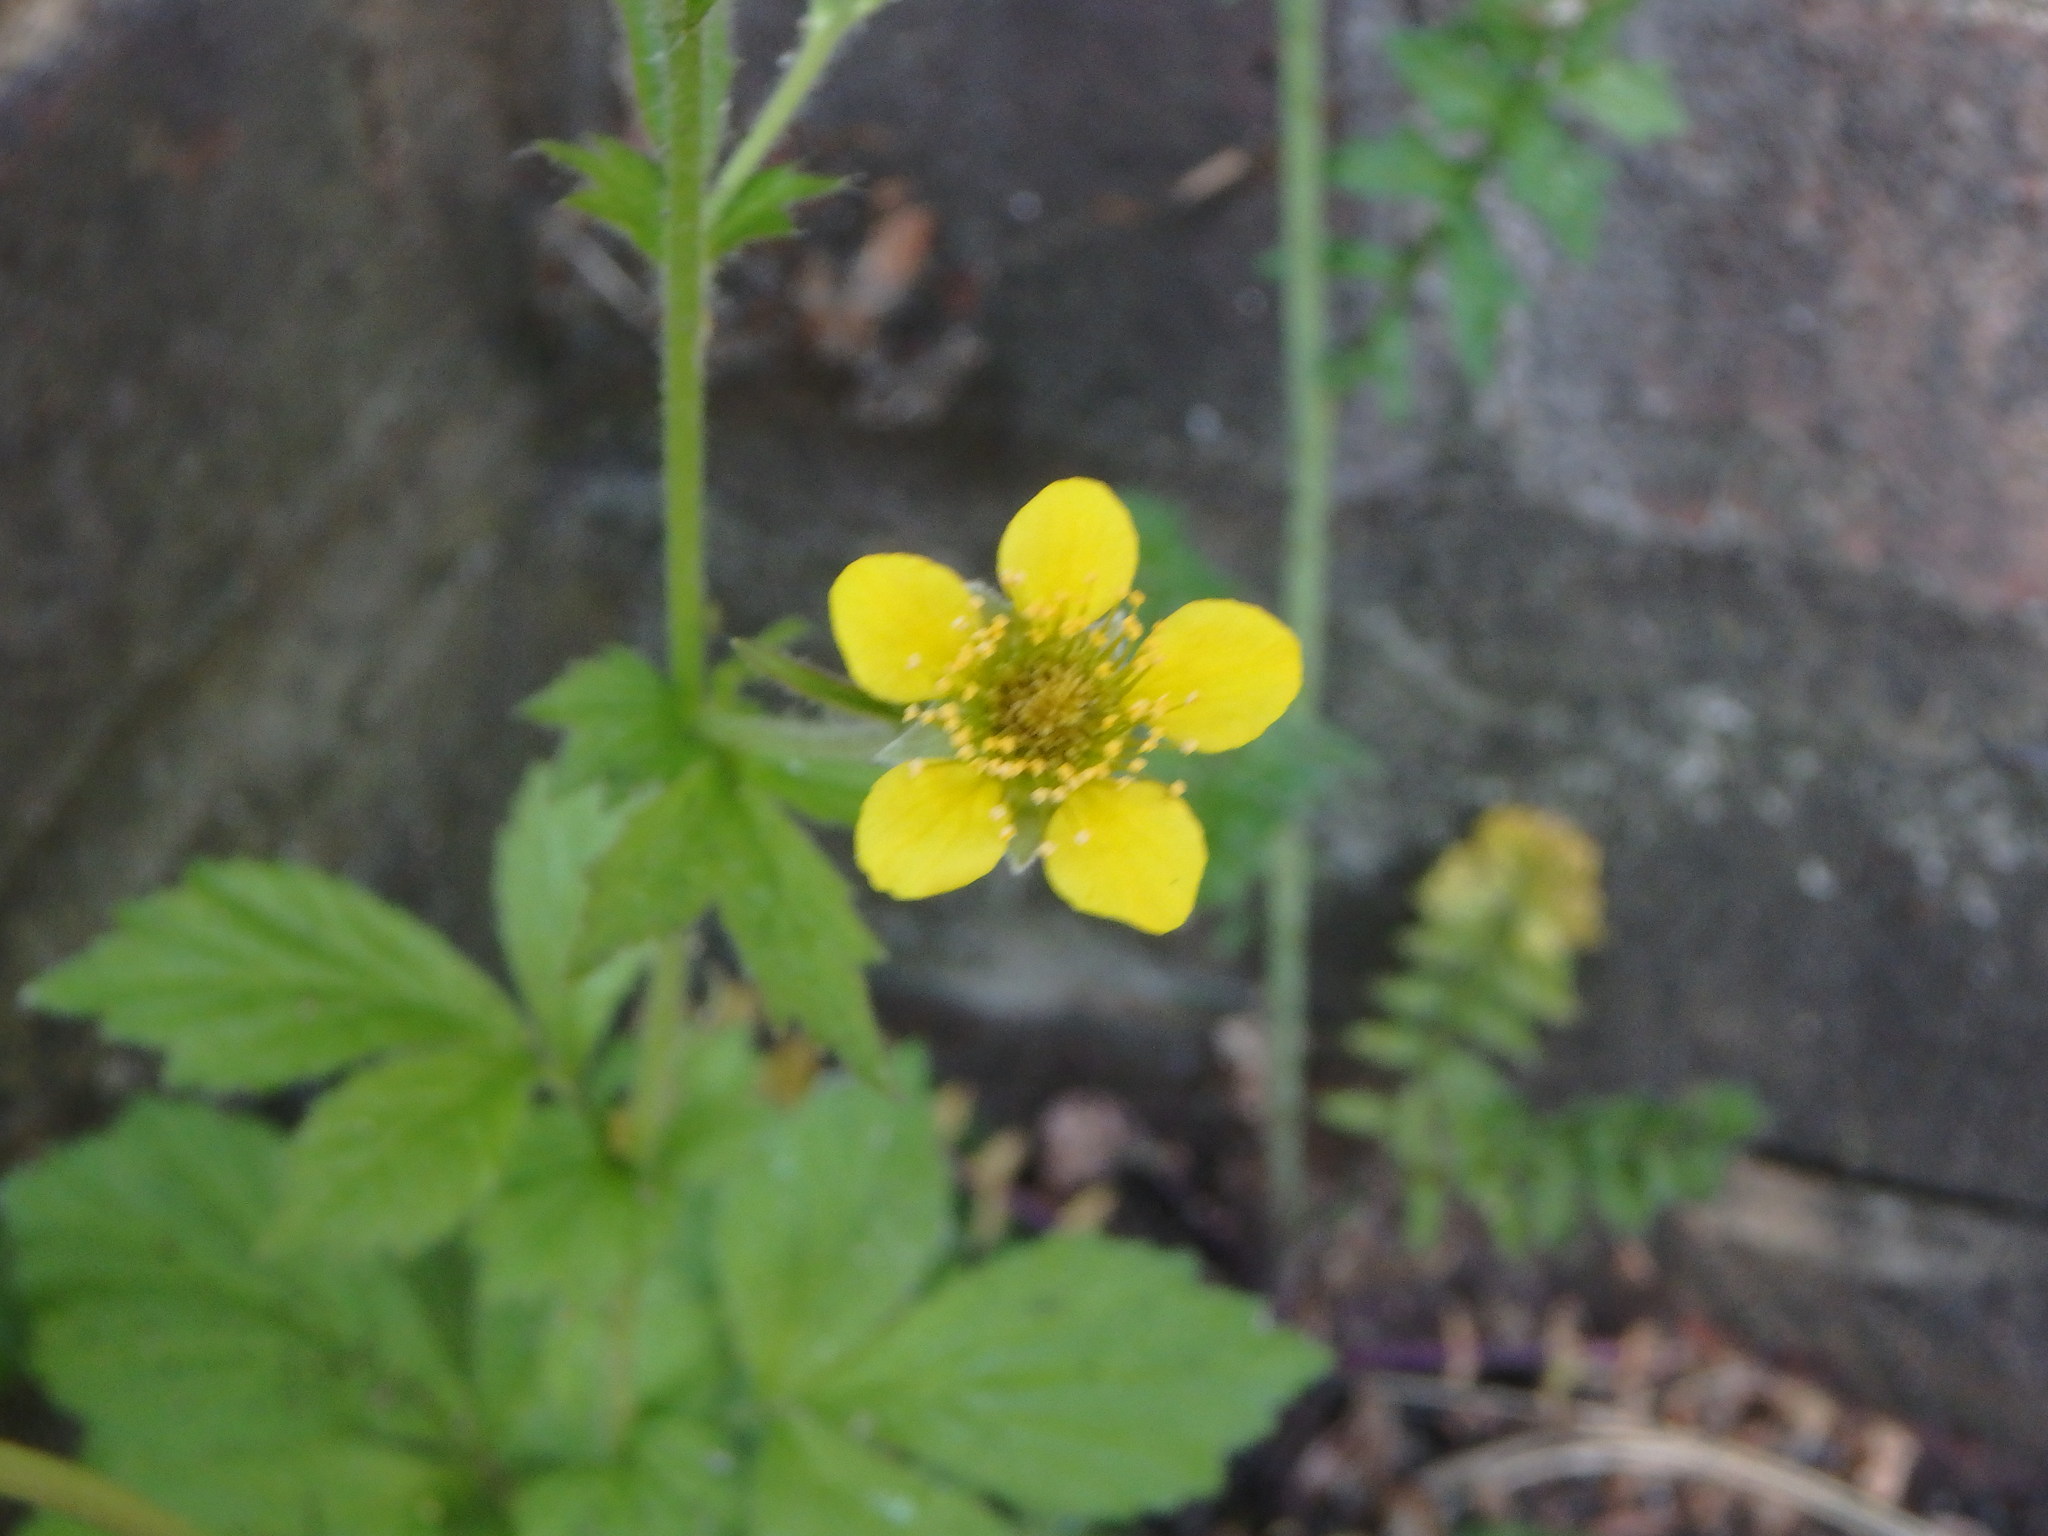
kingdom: Plantae
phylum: Tracheophyta
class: Magnoliopsida
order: Rosales
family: Rosaceae
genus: Geum
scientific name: Geum urbanum
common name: Wood avens
